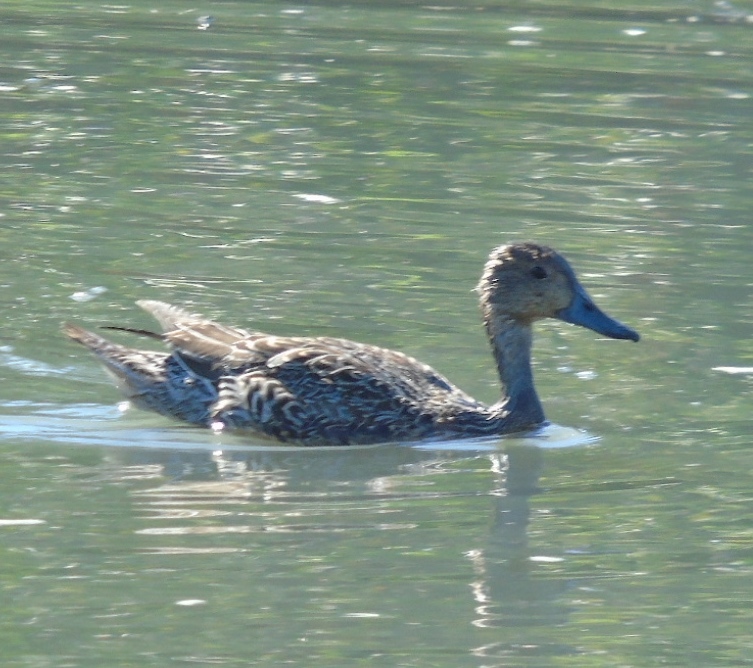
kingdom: Animalia
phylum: Chordata
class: Aves
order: Anseriformes
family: Anatidae
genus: Anas
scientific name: Anas acuta
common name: Northern pintail
